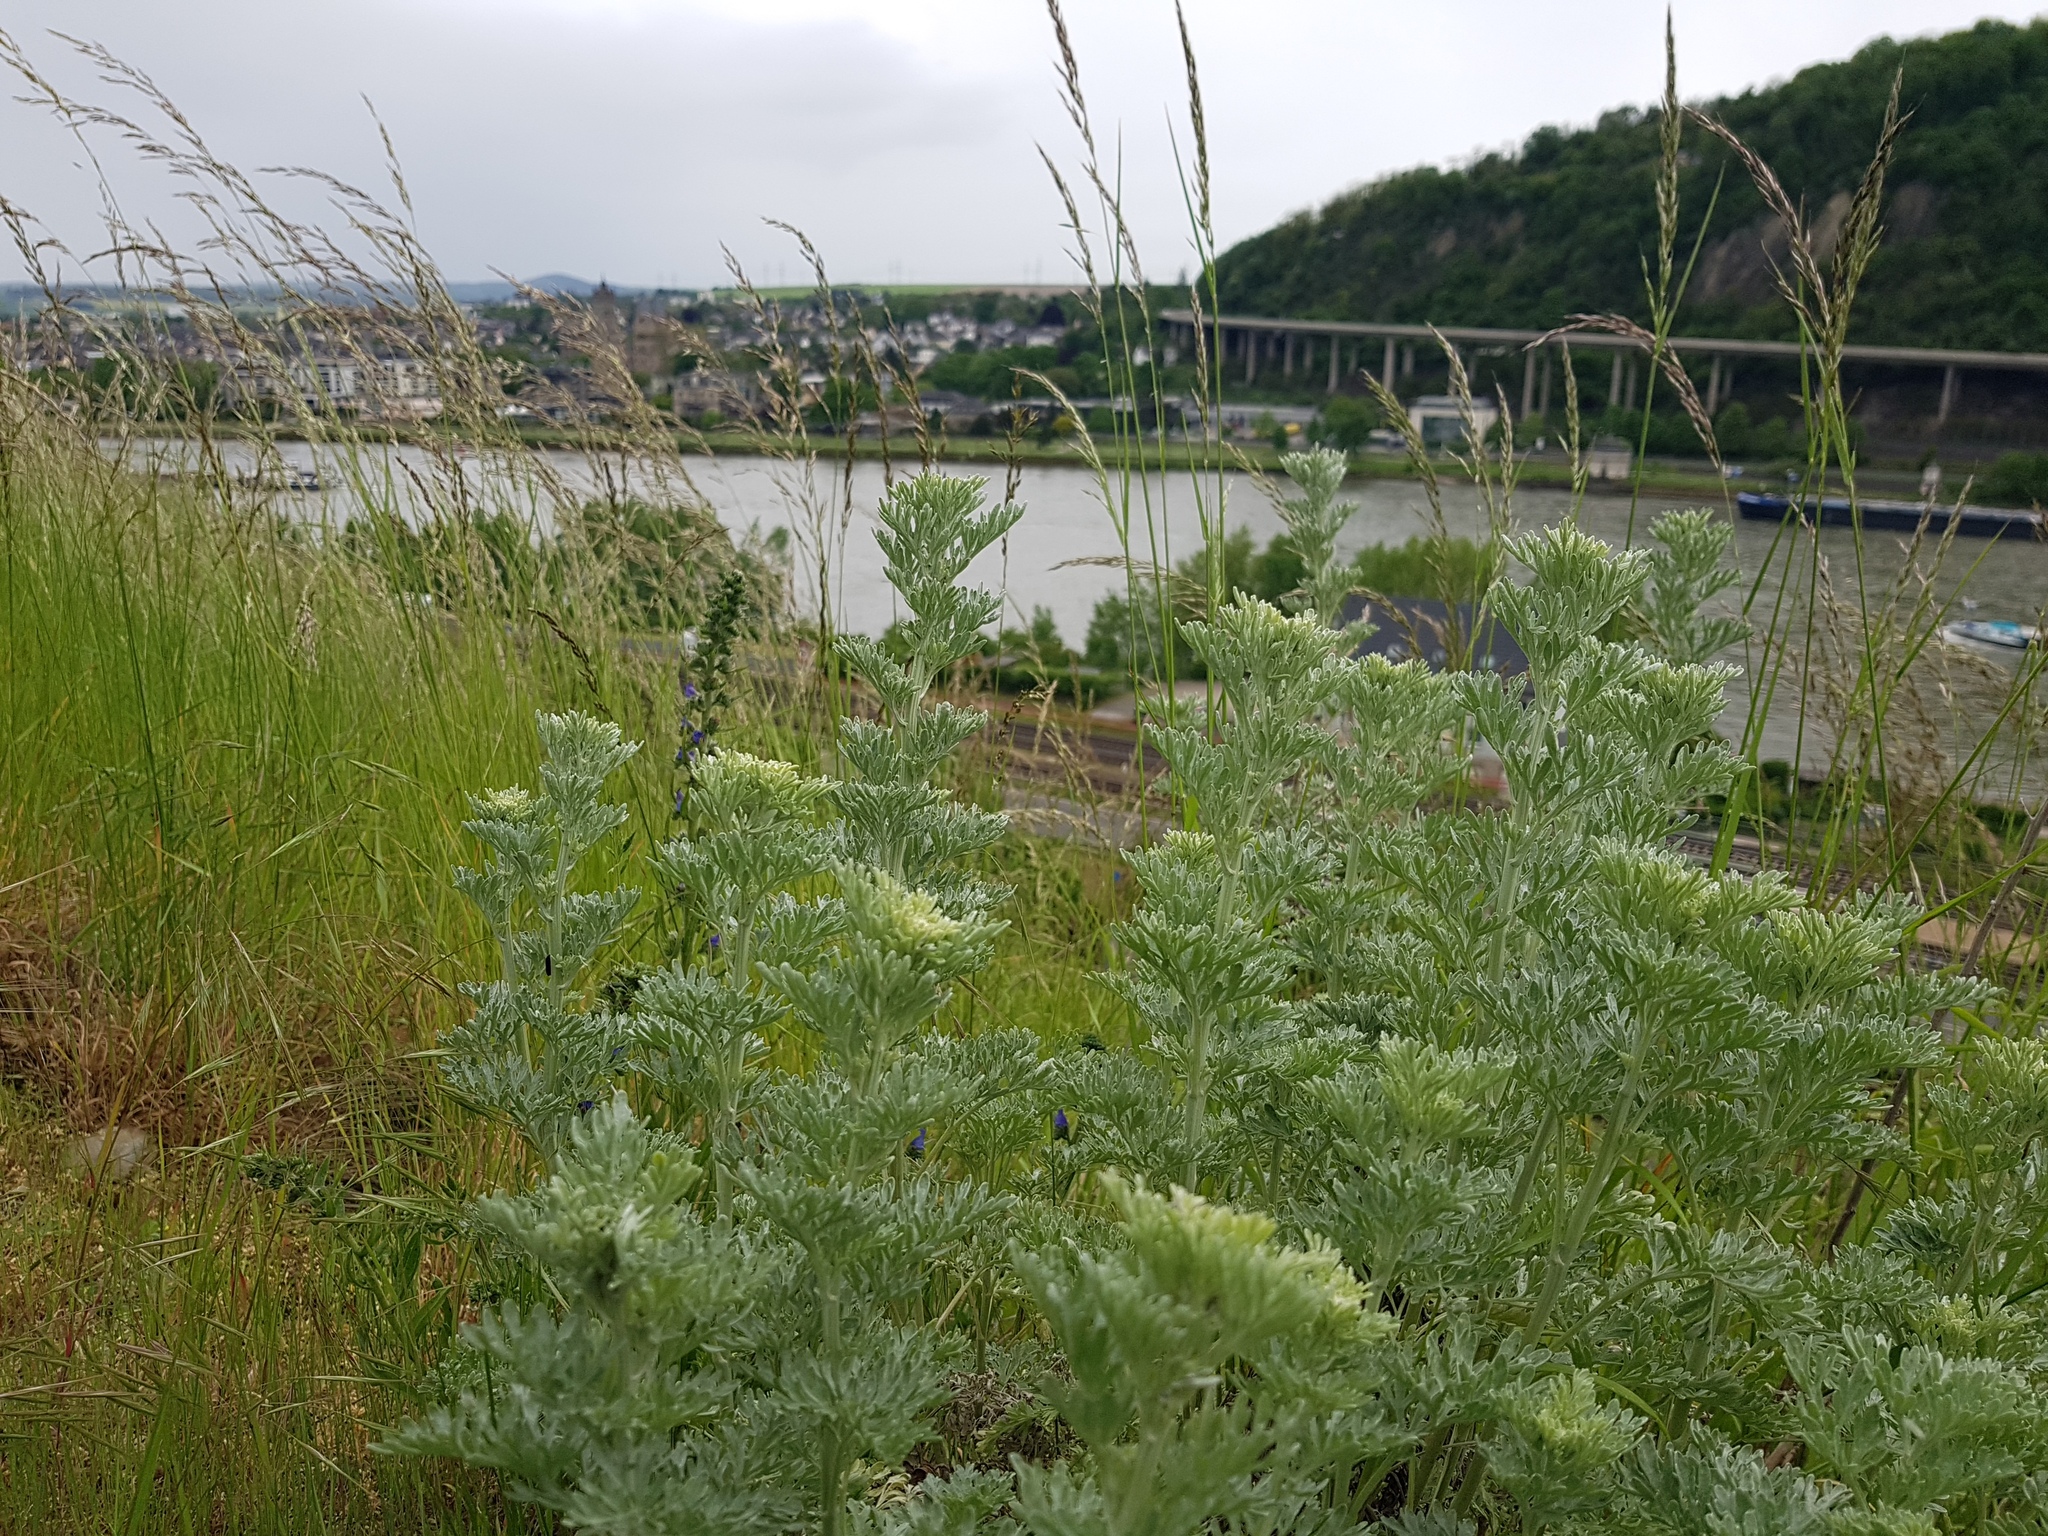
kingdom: Plantae
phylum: Tracheophyta
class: Magnoliopsida
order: Asterales
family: Asteraceae
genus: Artemisia
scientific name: Artemisia absinthium
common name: Wormwood
